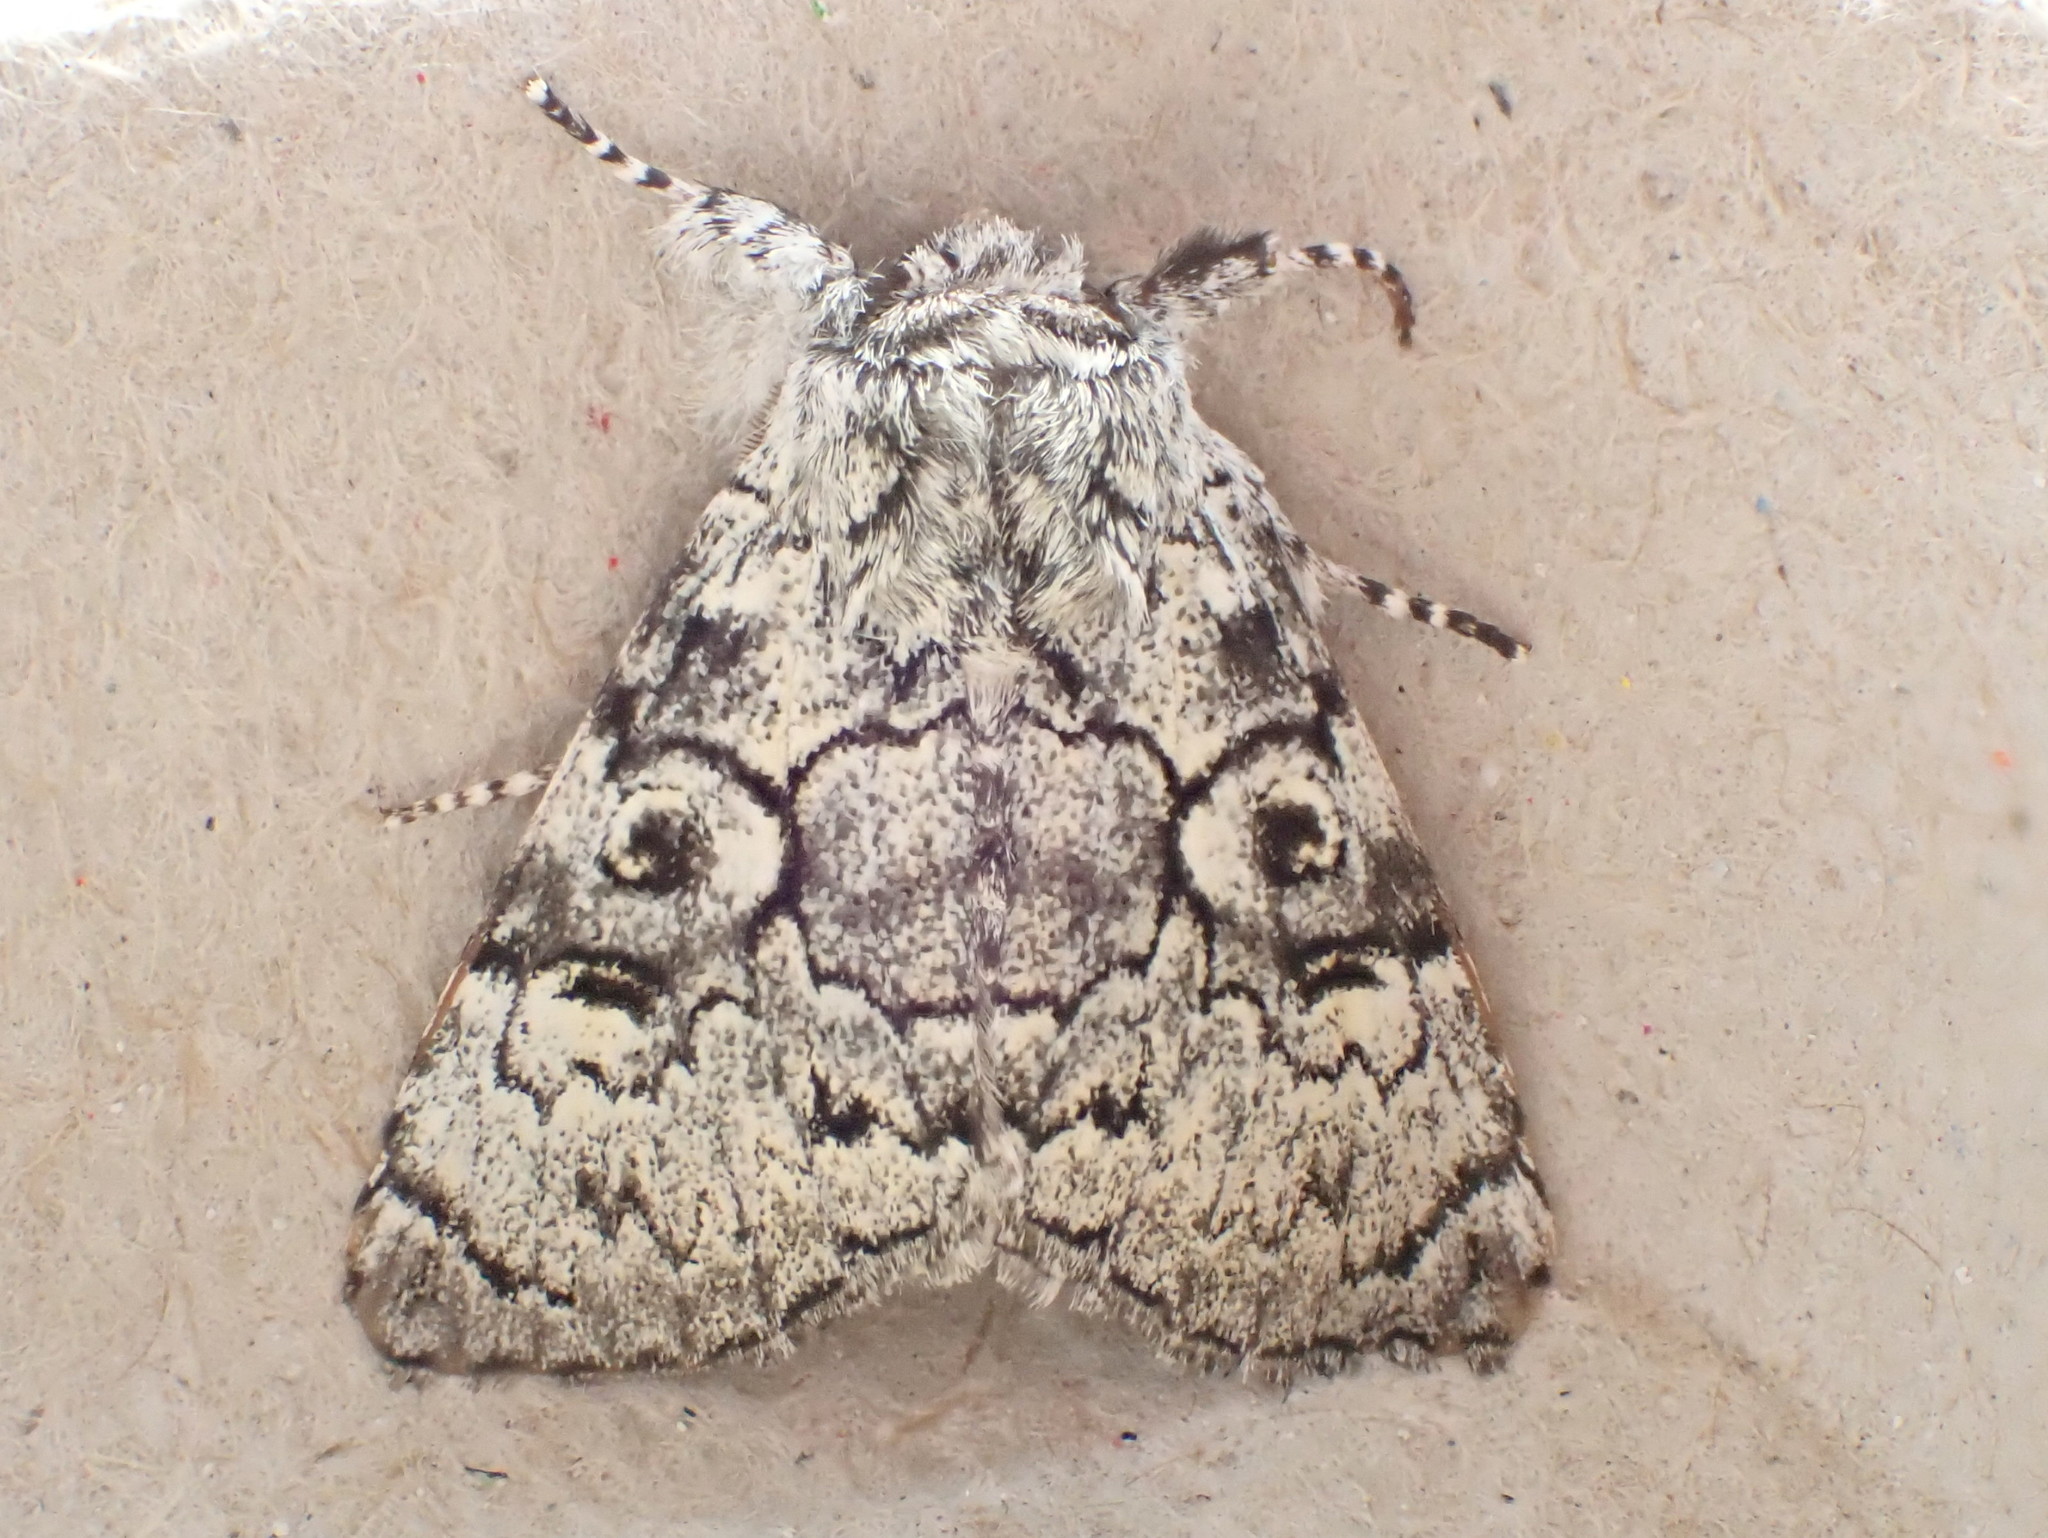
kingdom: Animalia
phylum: Arthropoda
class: Insecta
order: Lepidoptera
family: Noctuidae
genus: Charadra
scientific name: Charadra deridens
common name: Marbled tuffet
